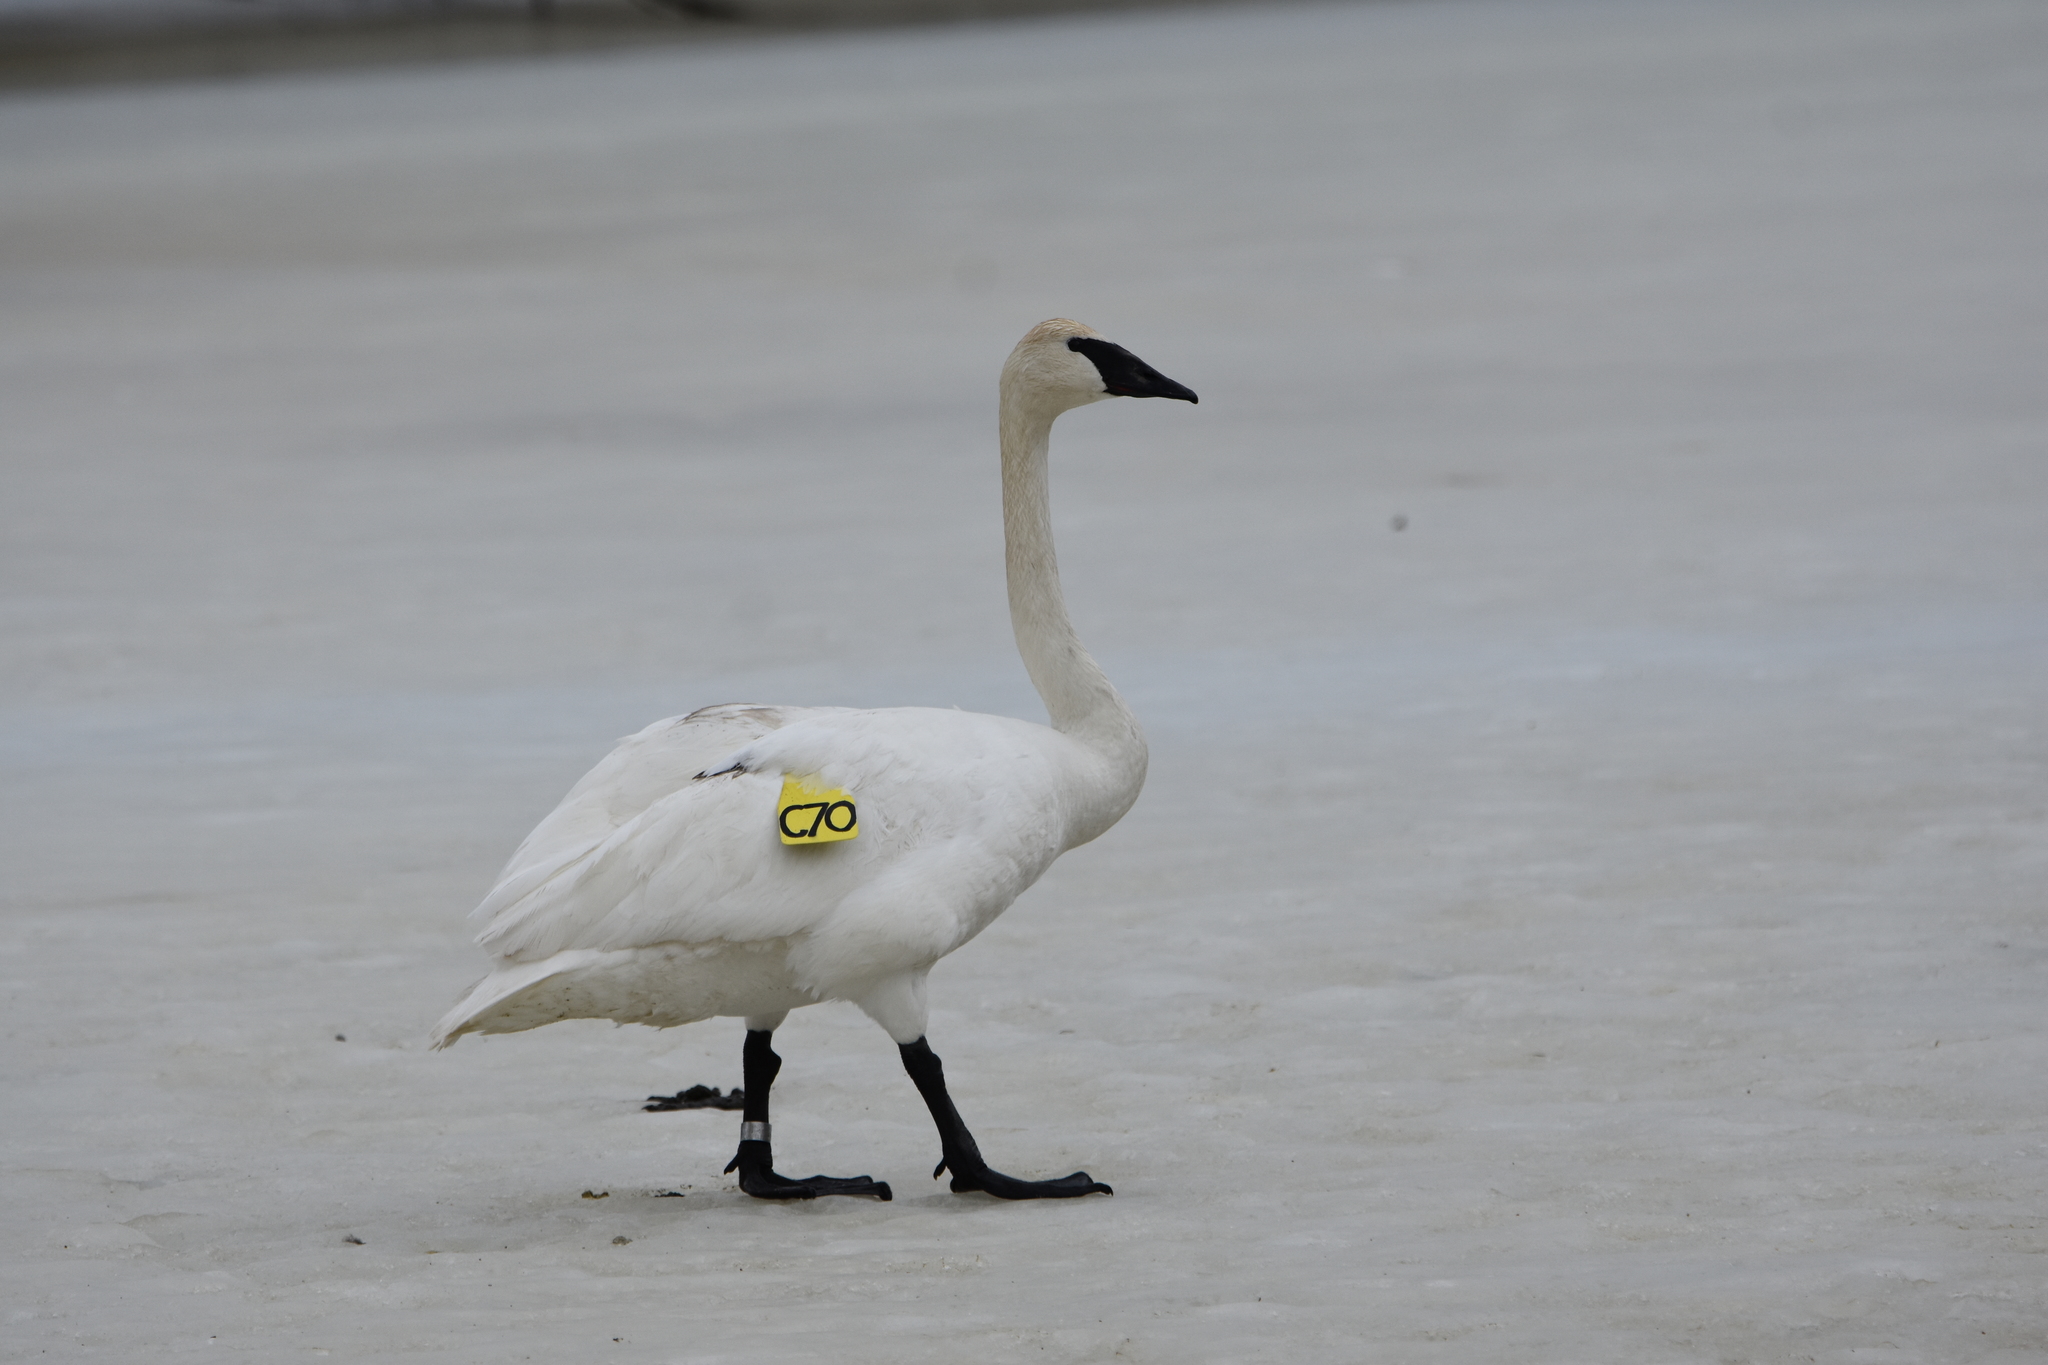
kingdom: Animalia
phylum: Chordata
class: Aves
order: Anseriformes
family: Anatidae
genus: Cygnus
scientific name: Cygnus buccinator
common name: Trumpeter swan
